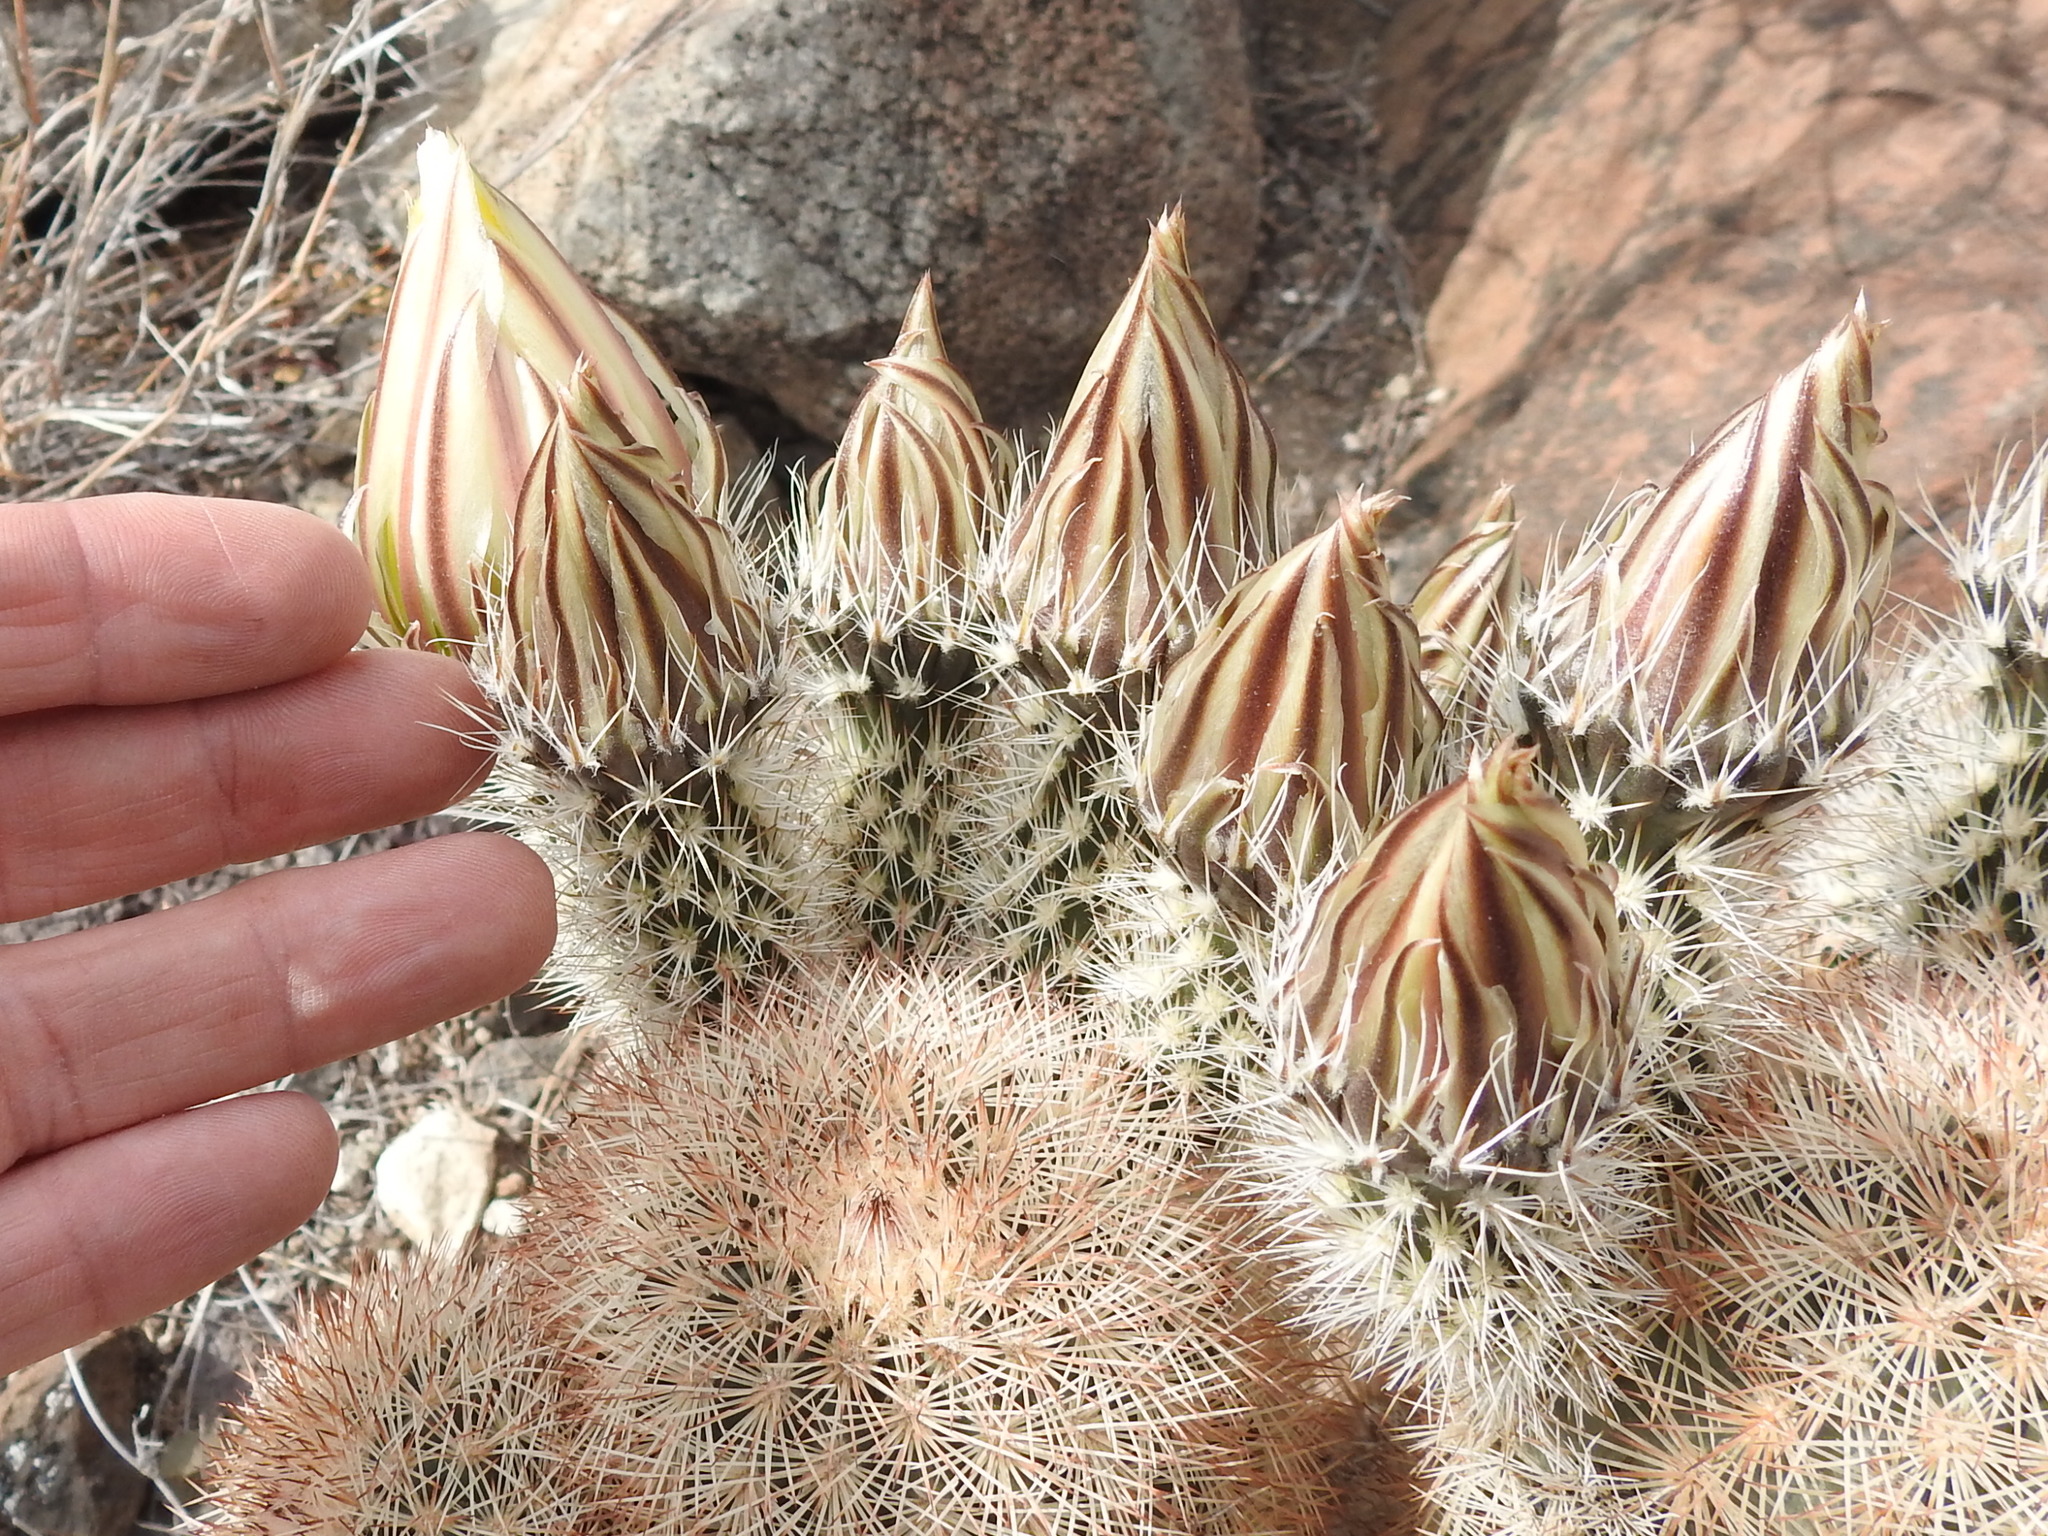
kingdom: Plantae
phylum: Tracheophyta
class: Magnoliopsida
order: Caryophyllales
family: Cactaceae
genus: Echinocereus
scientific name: Echinocereus dasyacanthus
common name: Spiny hedgehog cactus
